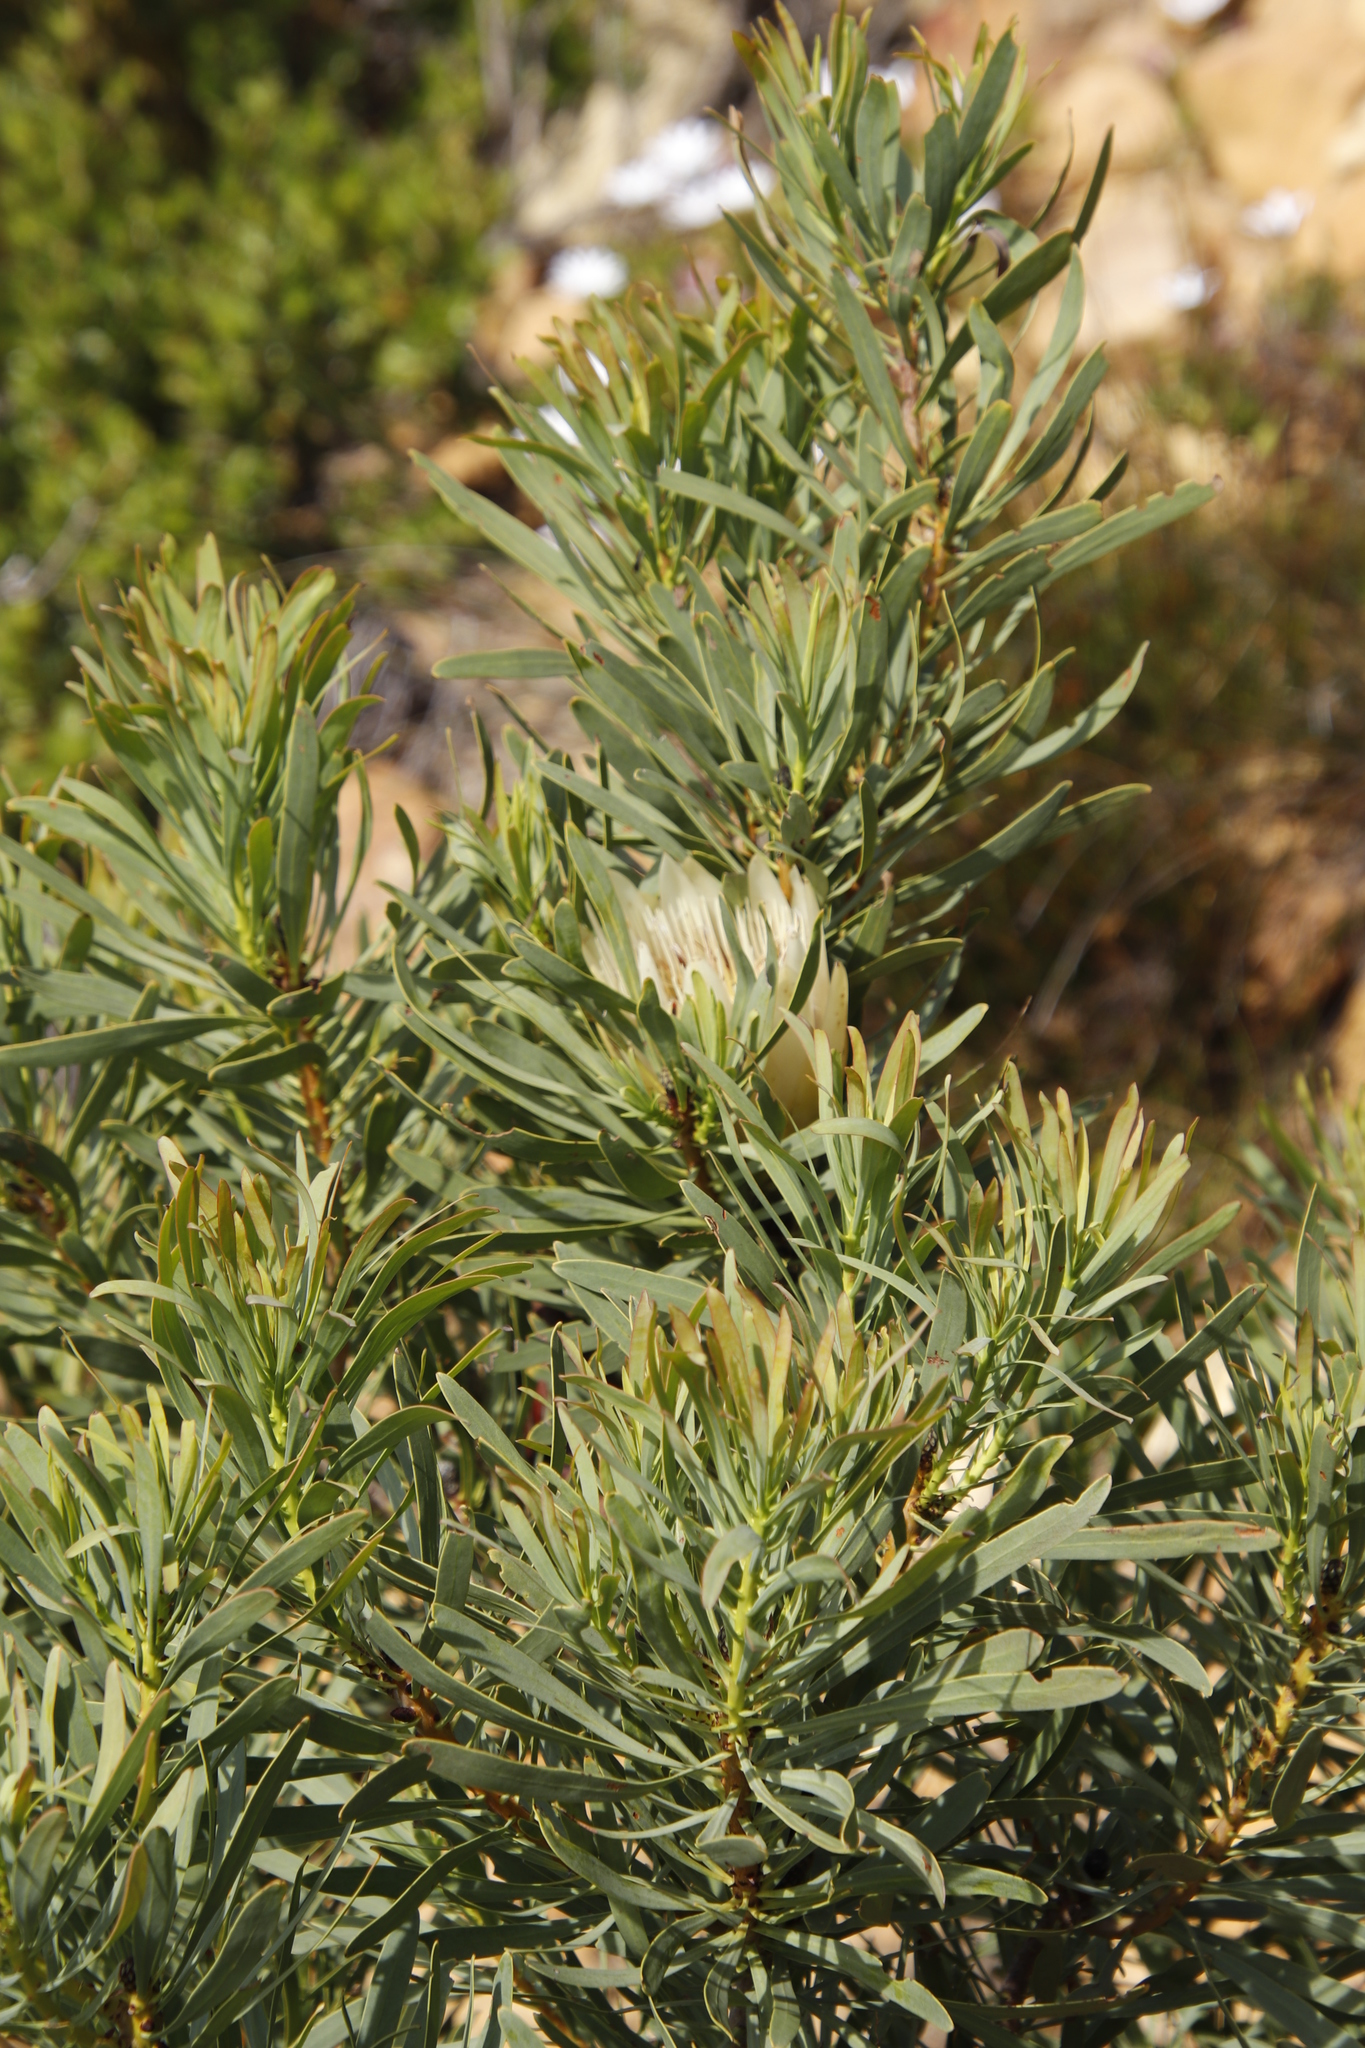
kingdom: Plantae
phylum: Tracheophyta
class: Magnoliopsida
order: Proteales
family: Proteaceae
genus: Protea
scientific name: Protea repens
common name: Sugarbush
